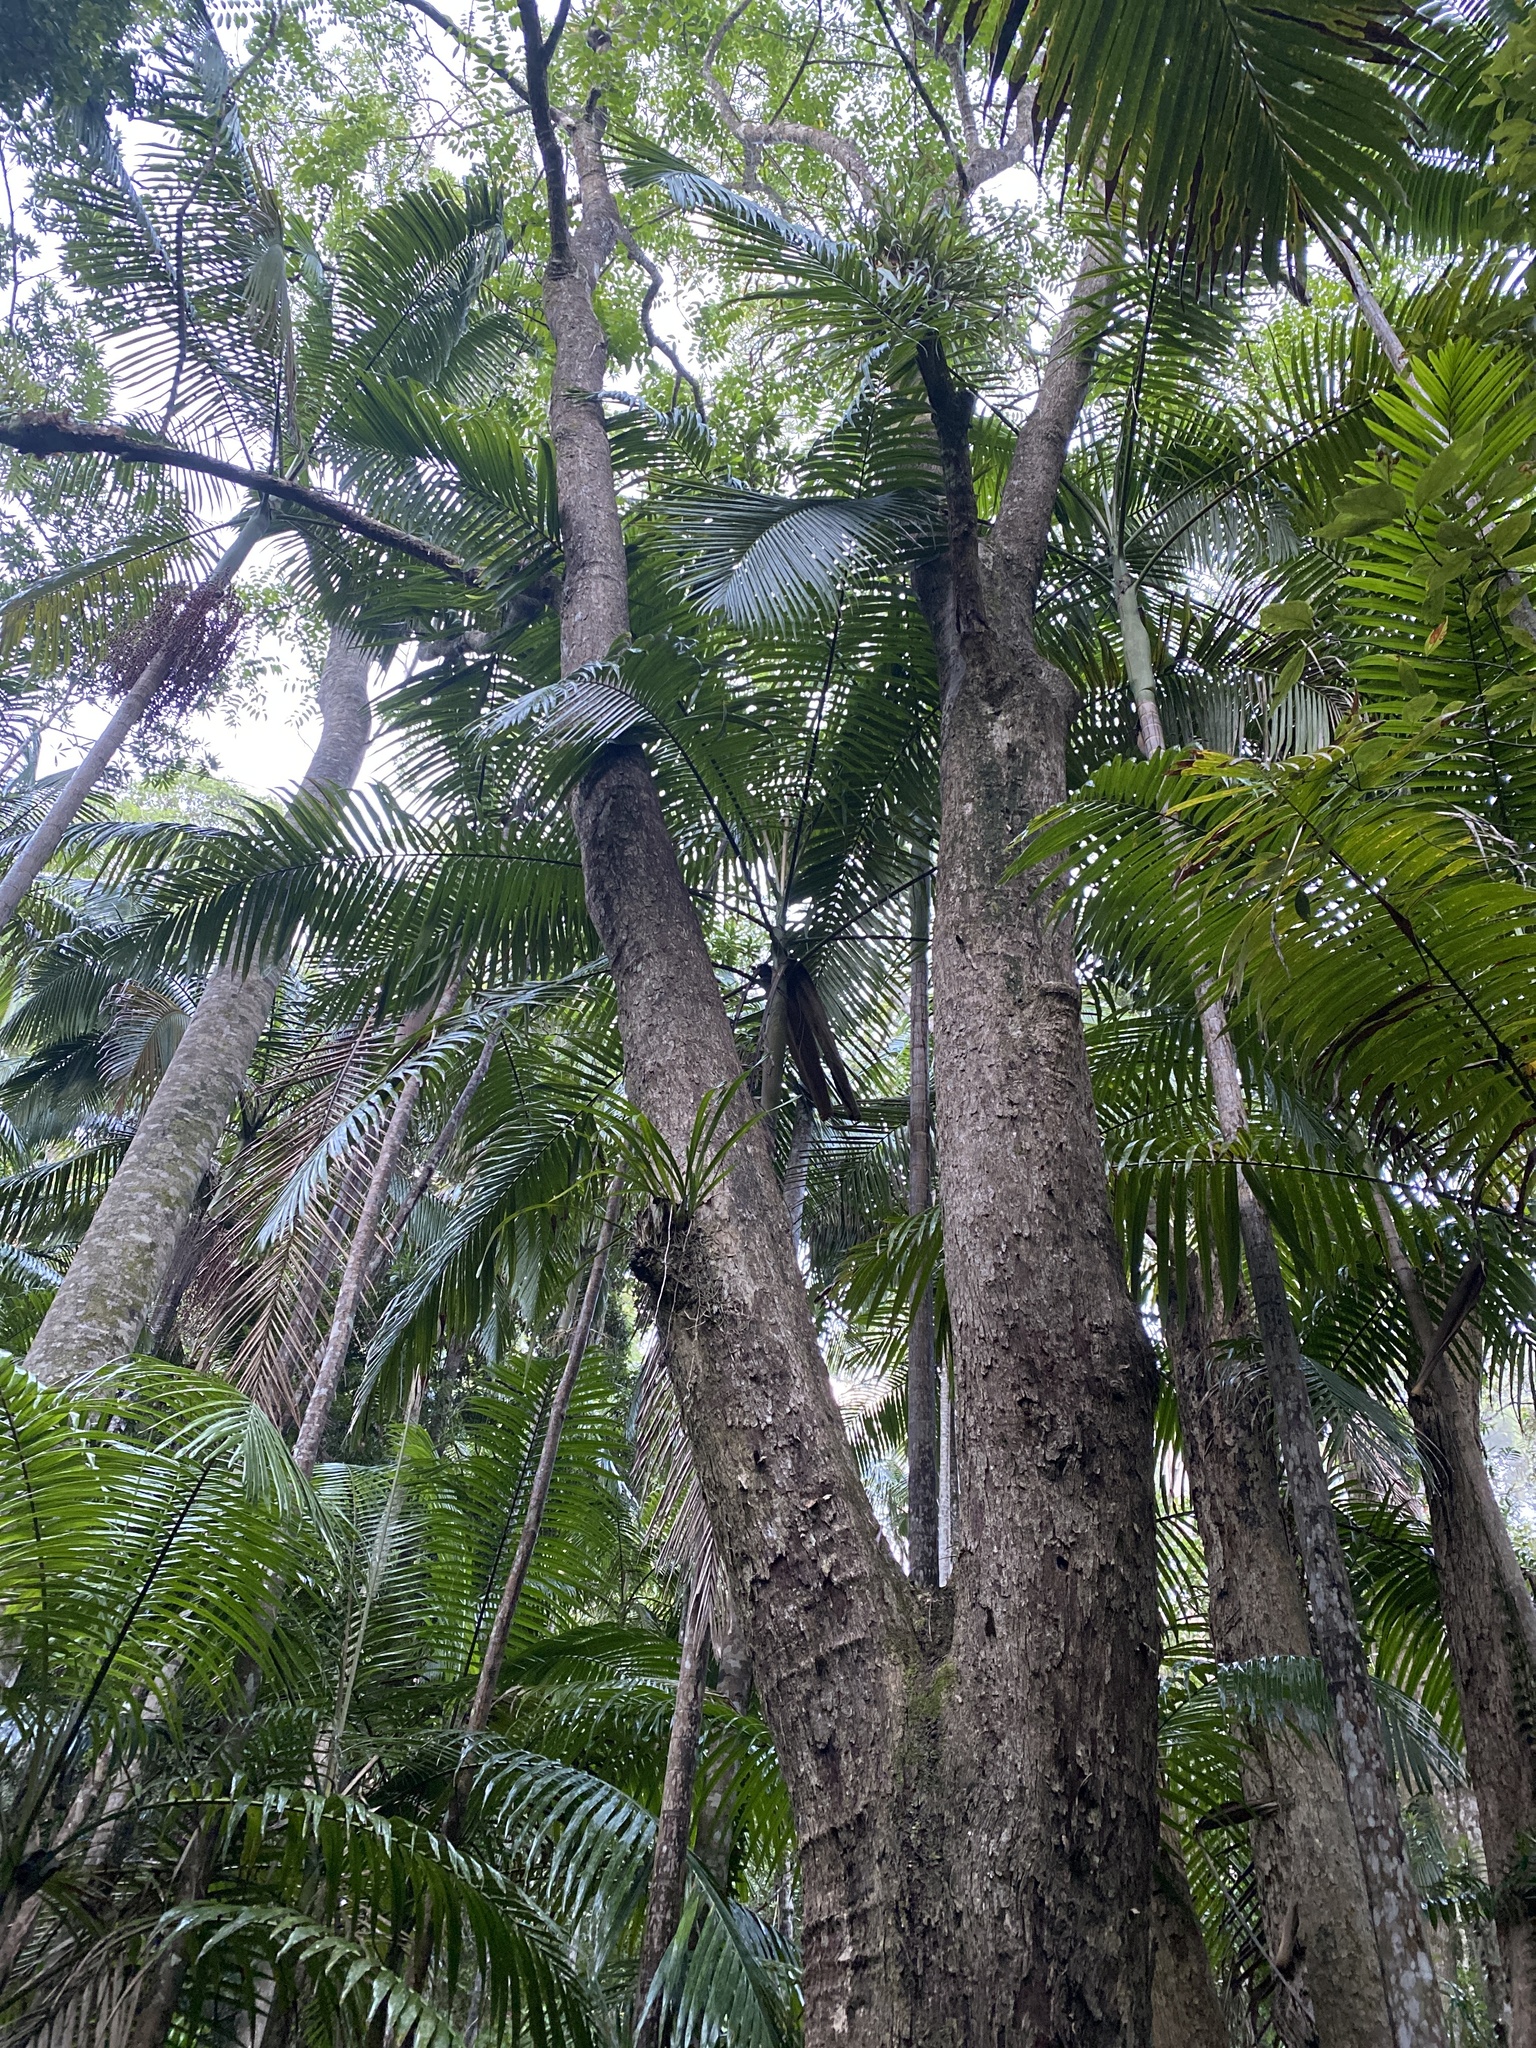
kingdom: Plantae
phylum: Tracheophyta
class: Liliopsida
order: Asparagales
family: Orchidaceae
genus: Cymbidium
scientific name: Cymbidium madidum
